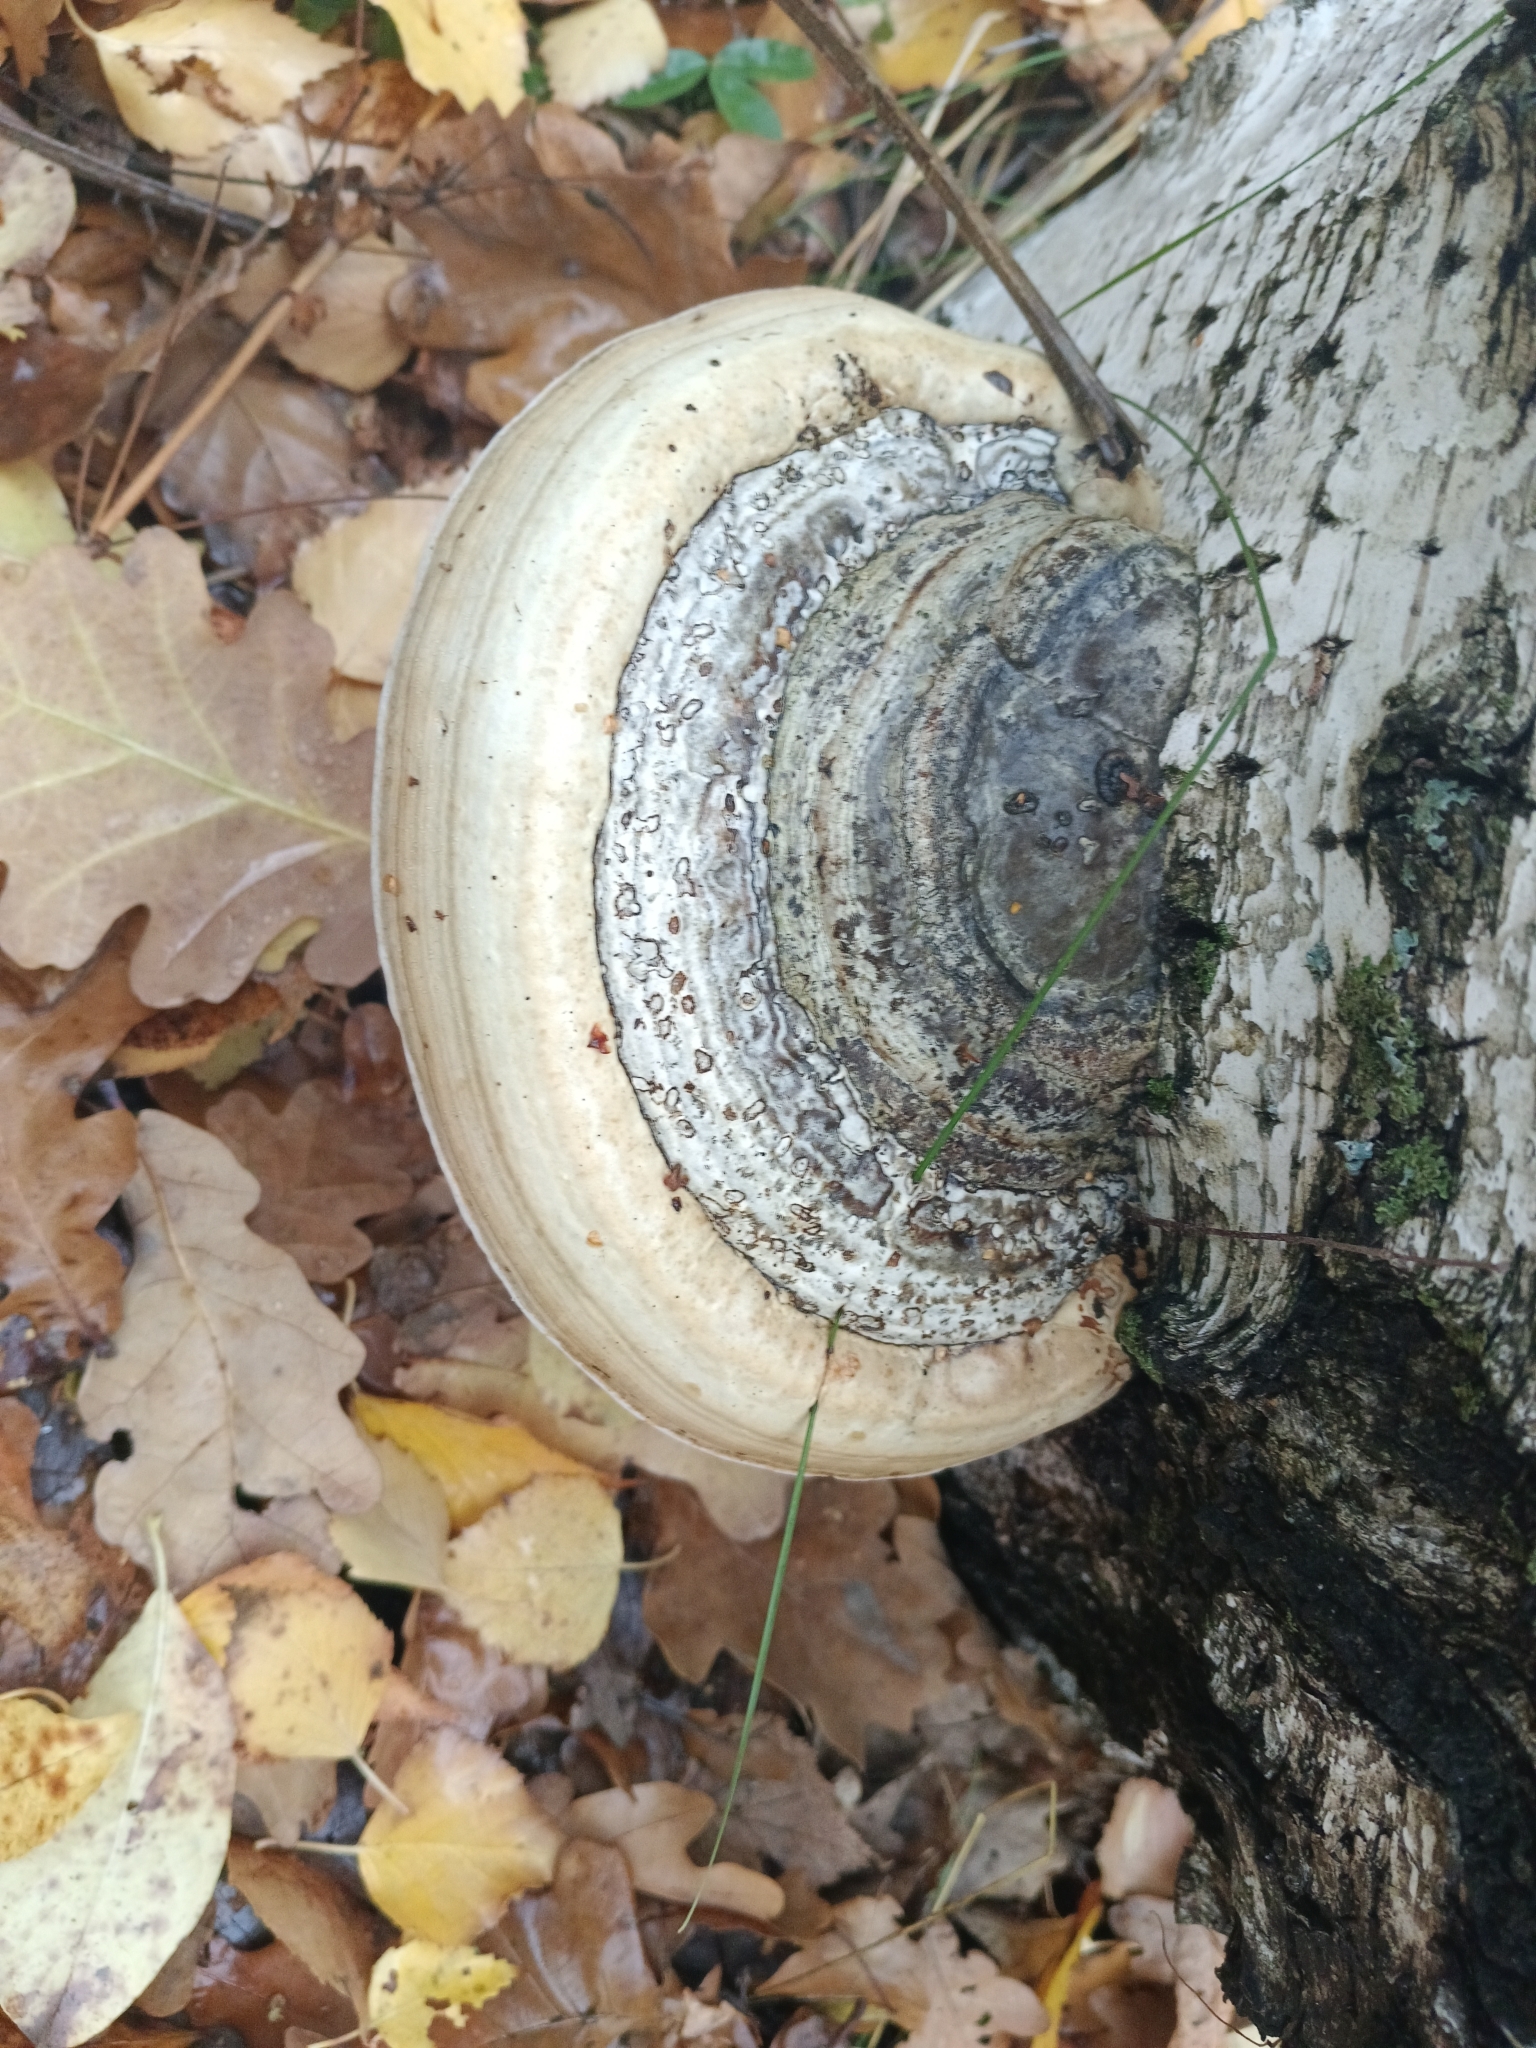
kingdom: Fungi
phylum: Basidiomycota
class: Agaricomycetes
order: Polyporales
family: Polyporaceae
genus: Fomes
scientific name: Fomes fomentarius
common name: Hoof fungus
